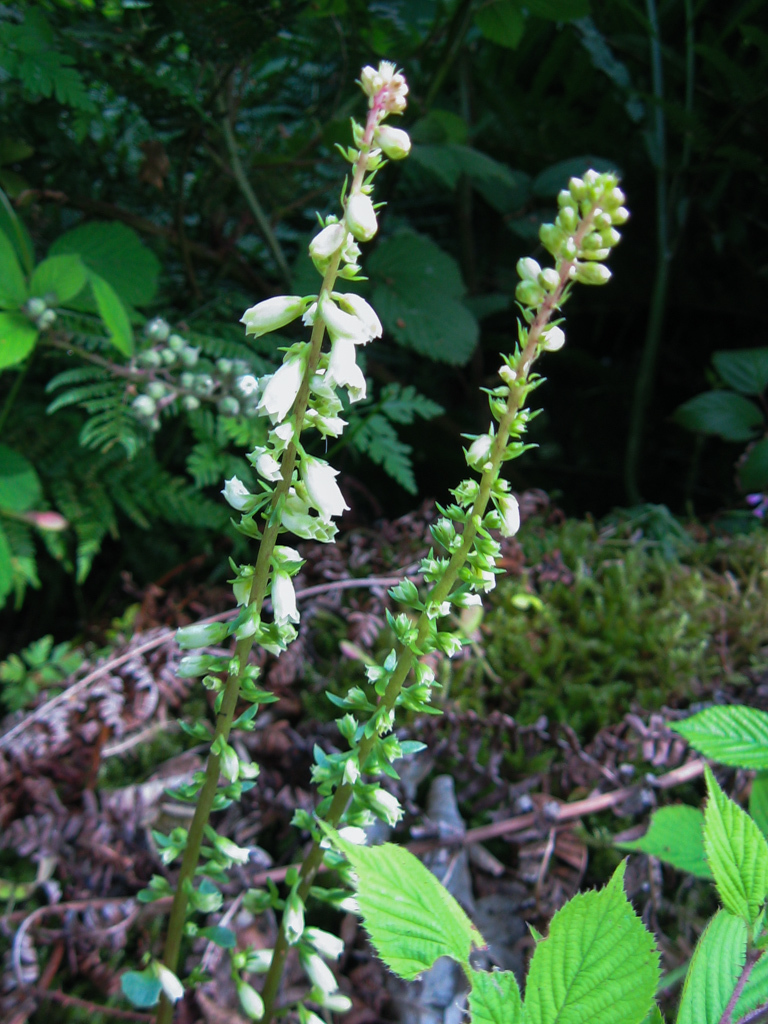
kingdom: Plantae
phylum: Tracheophyta
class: Magnoliopsida
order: Saxifragales
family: Crassulaceae
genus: Umbilicus
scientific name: Umbilicus rupestris
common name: Navelwort
